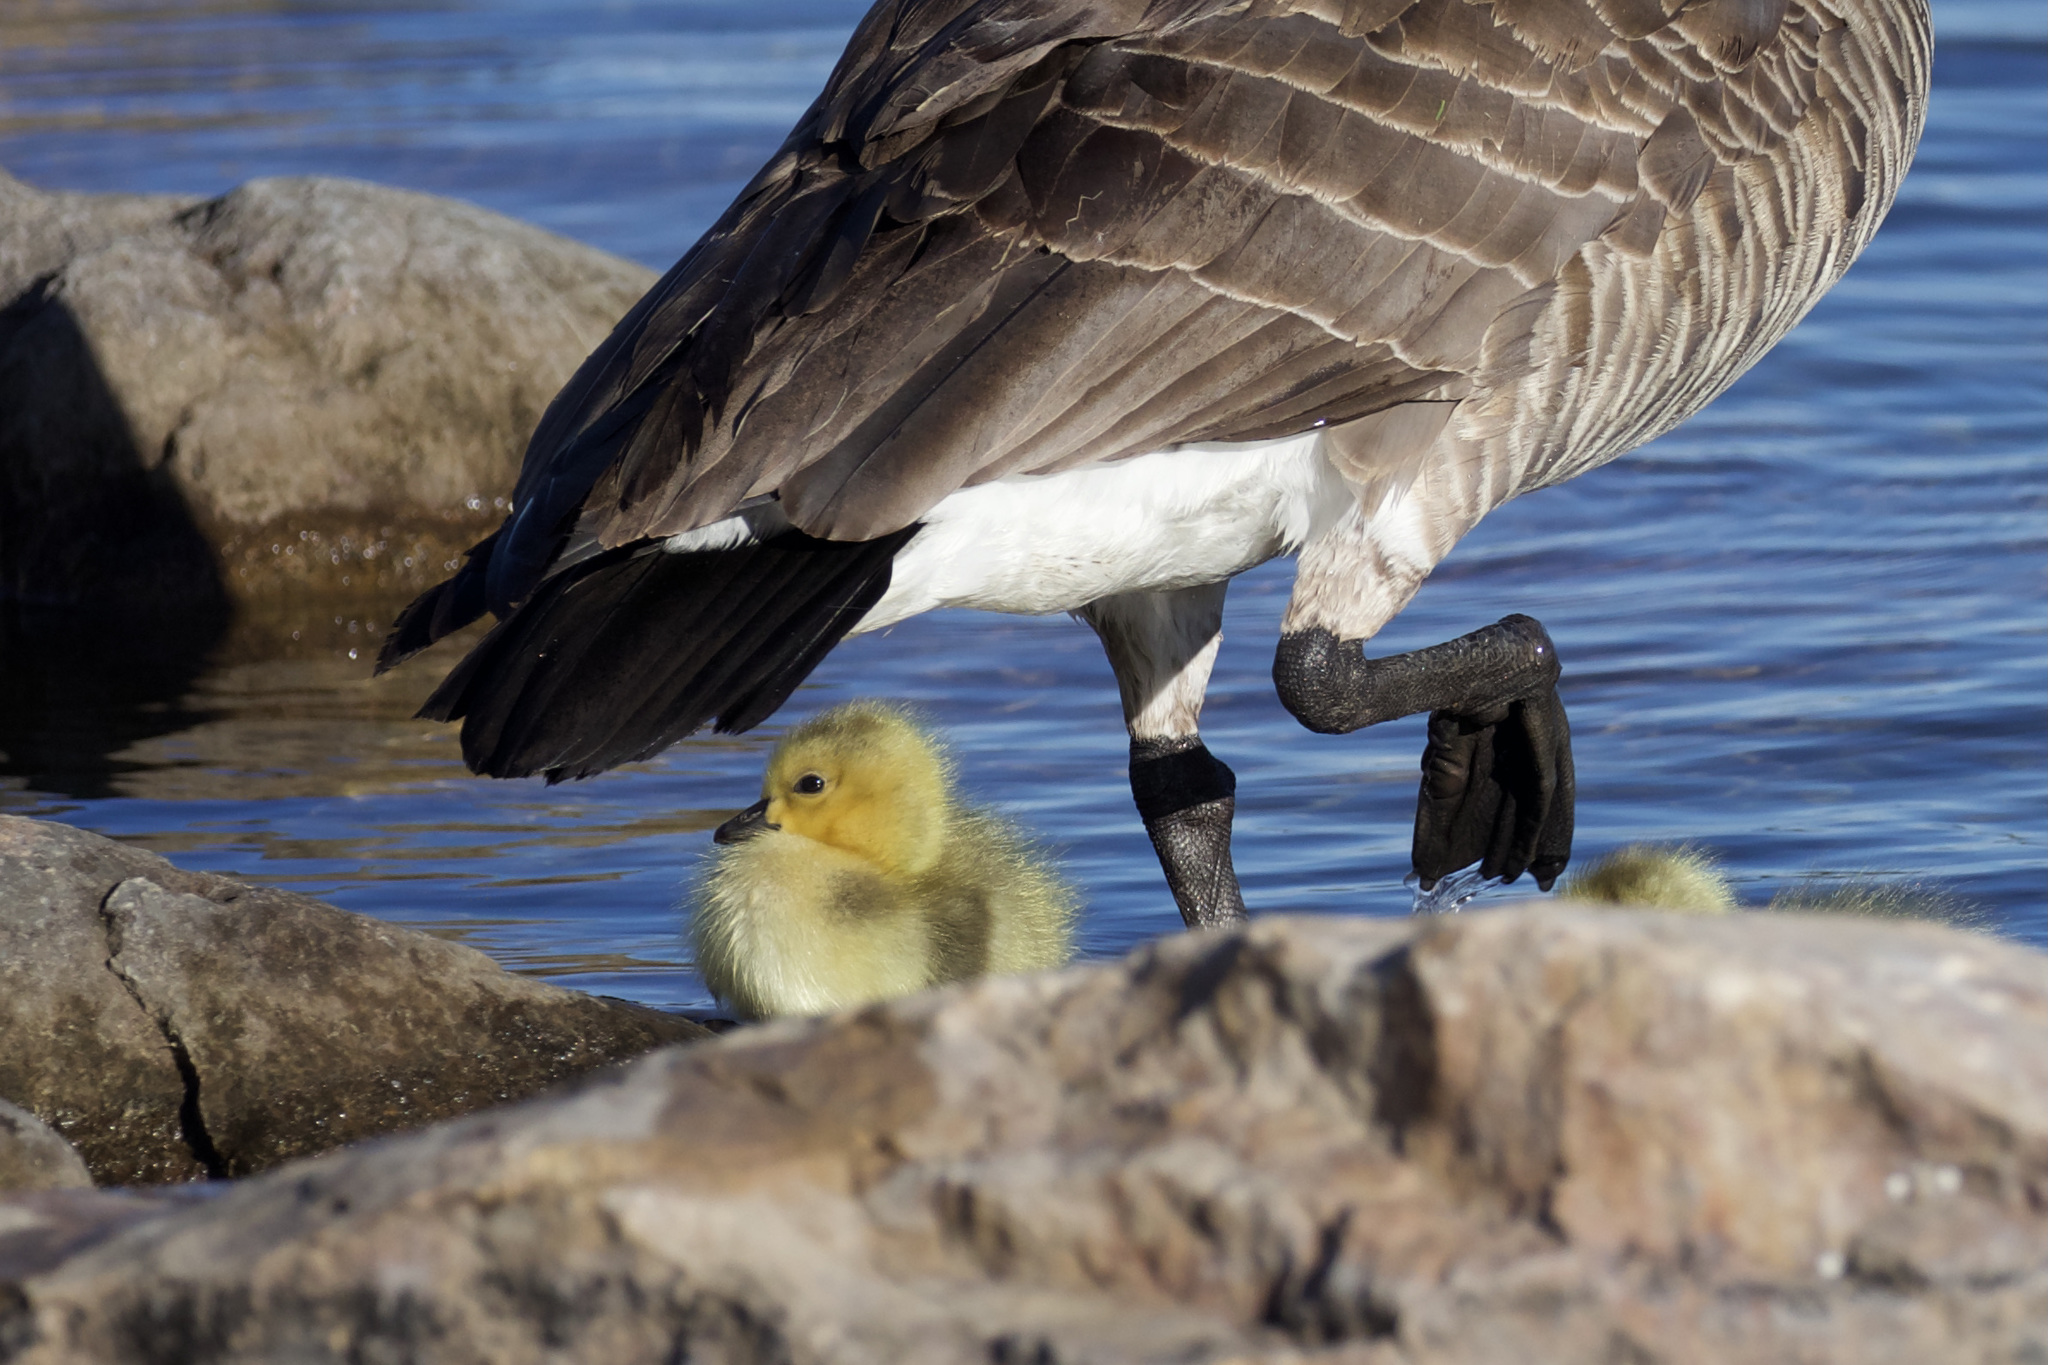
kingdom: Animalia
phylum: Chordata
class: Aves
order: Anseriformes
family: Anatidae
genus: Branta
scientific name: Branta canadensis
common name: Canada goose
